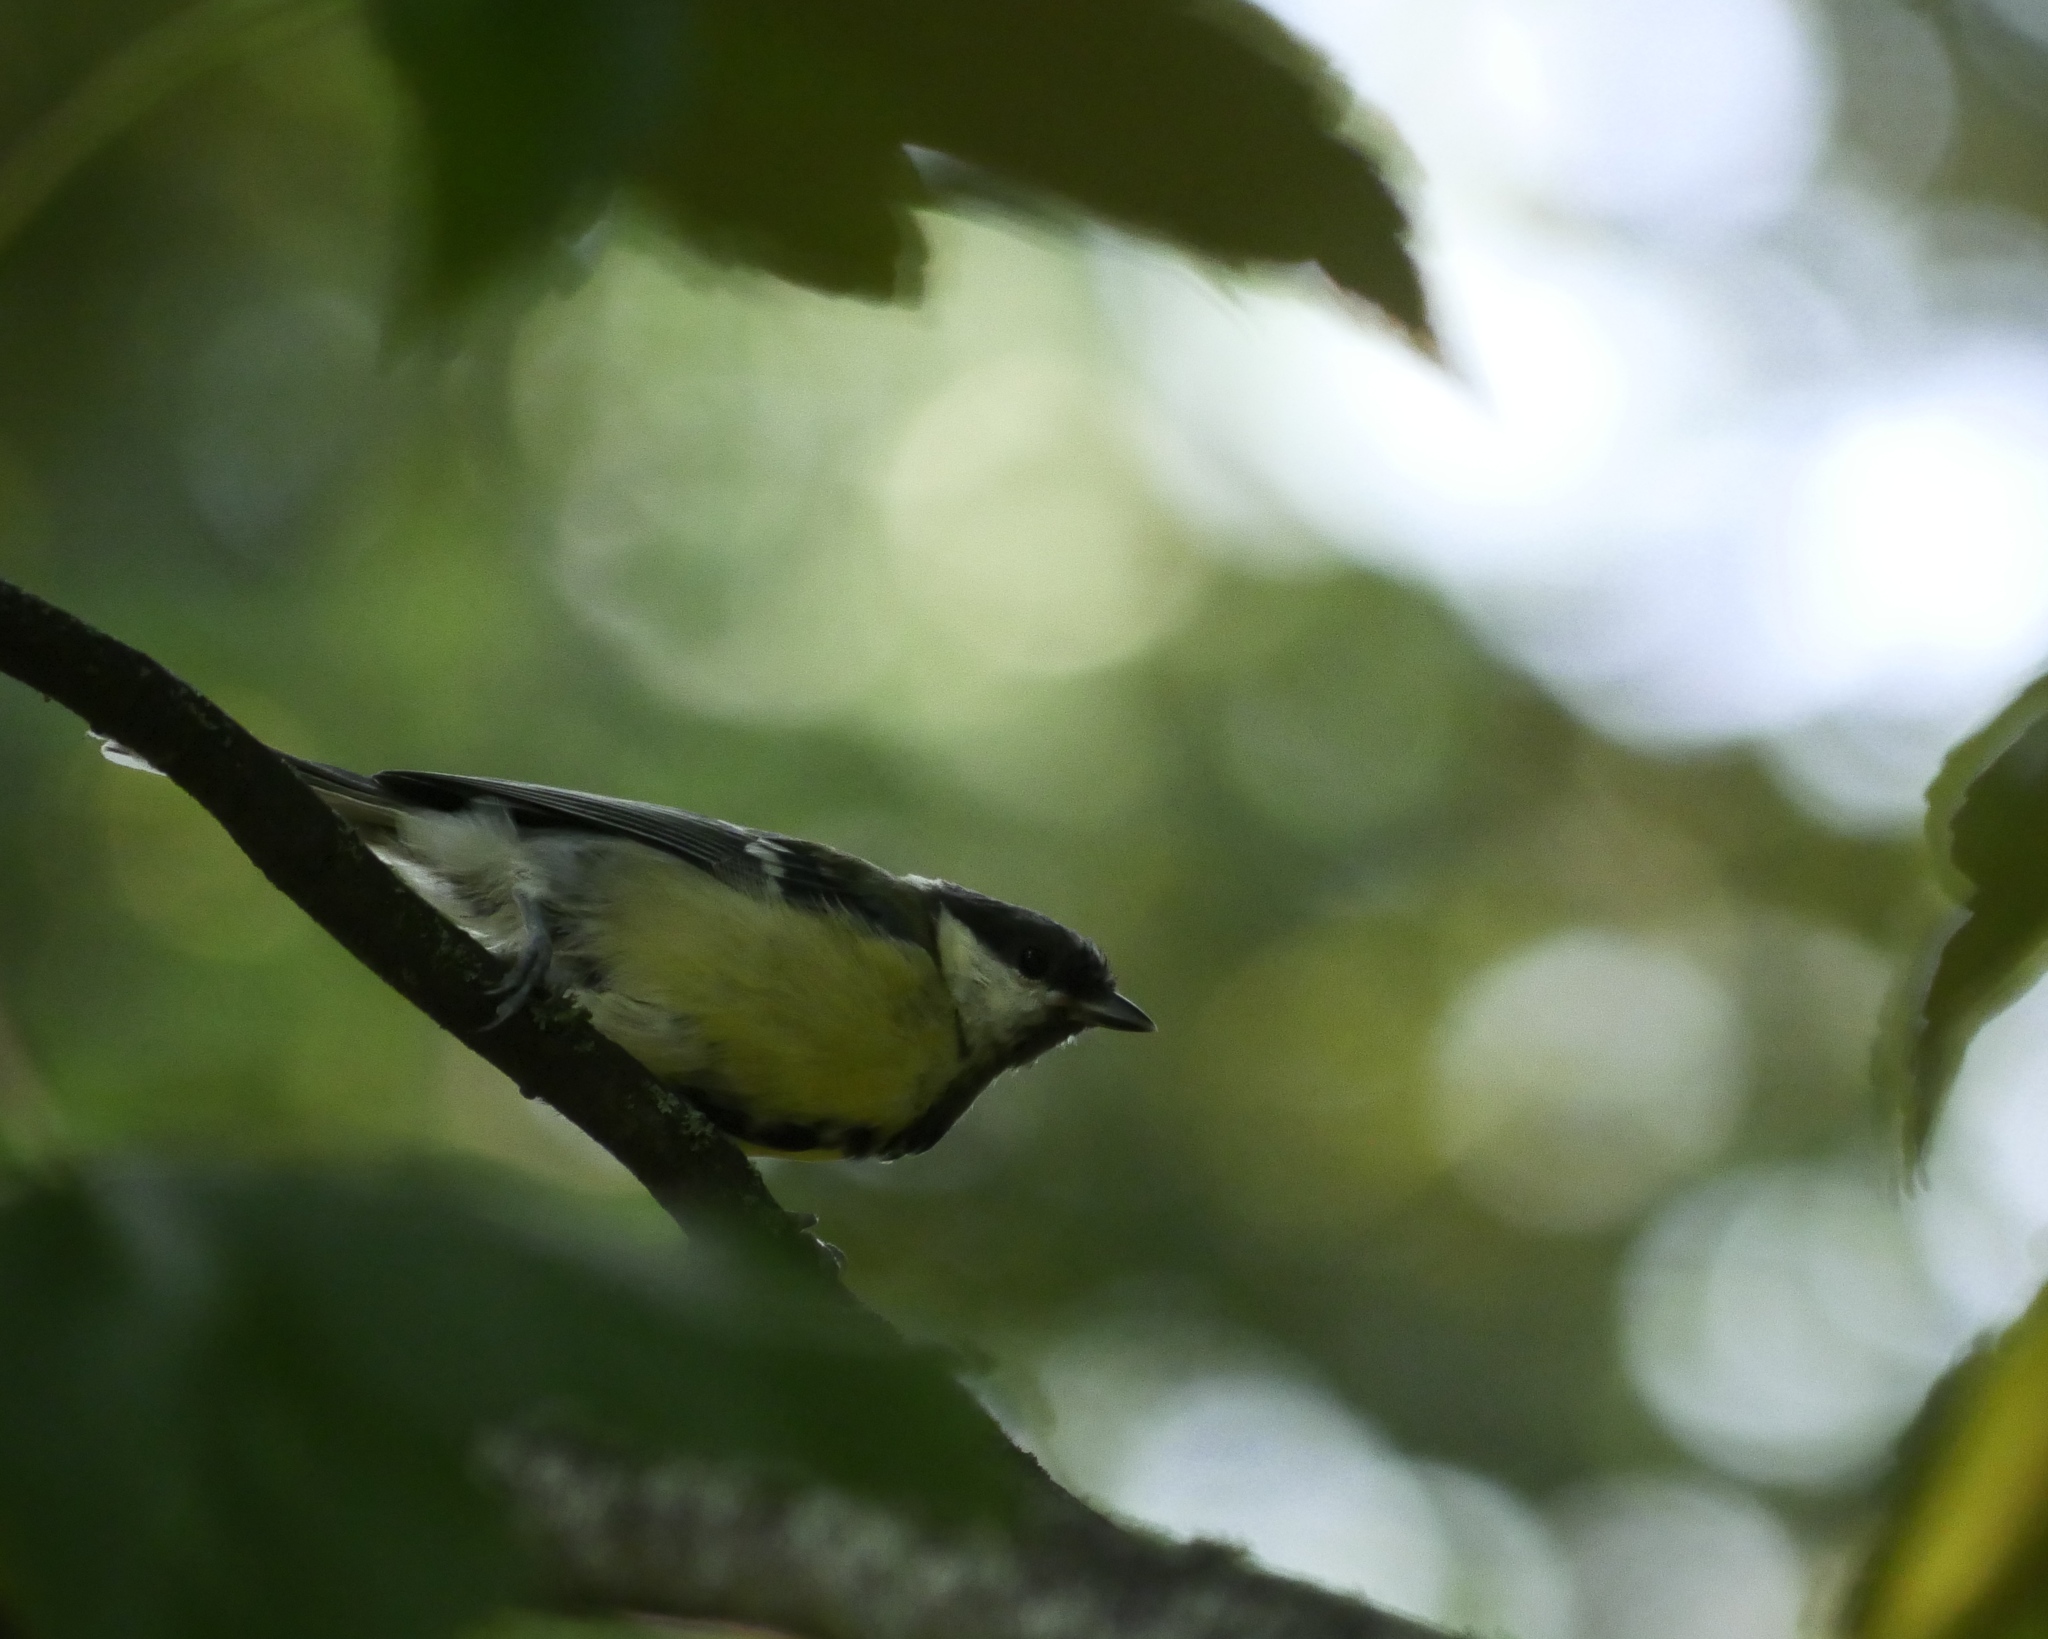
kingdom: Animalia
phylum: Chordata
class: Aves
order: Passeriformes
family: Paridae
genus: Parus
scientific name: Parus major
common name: Great tit
